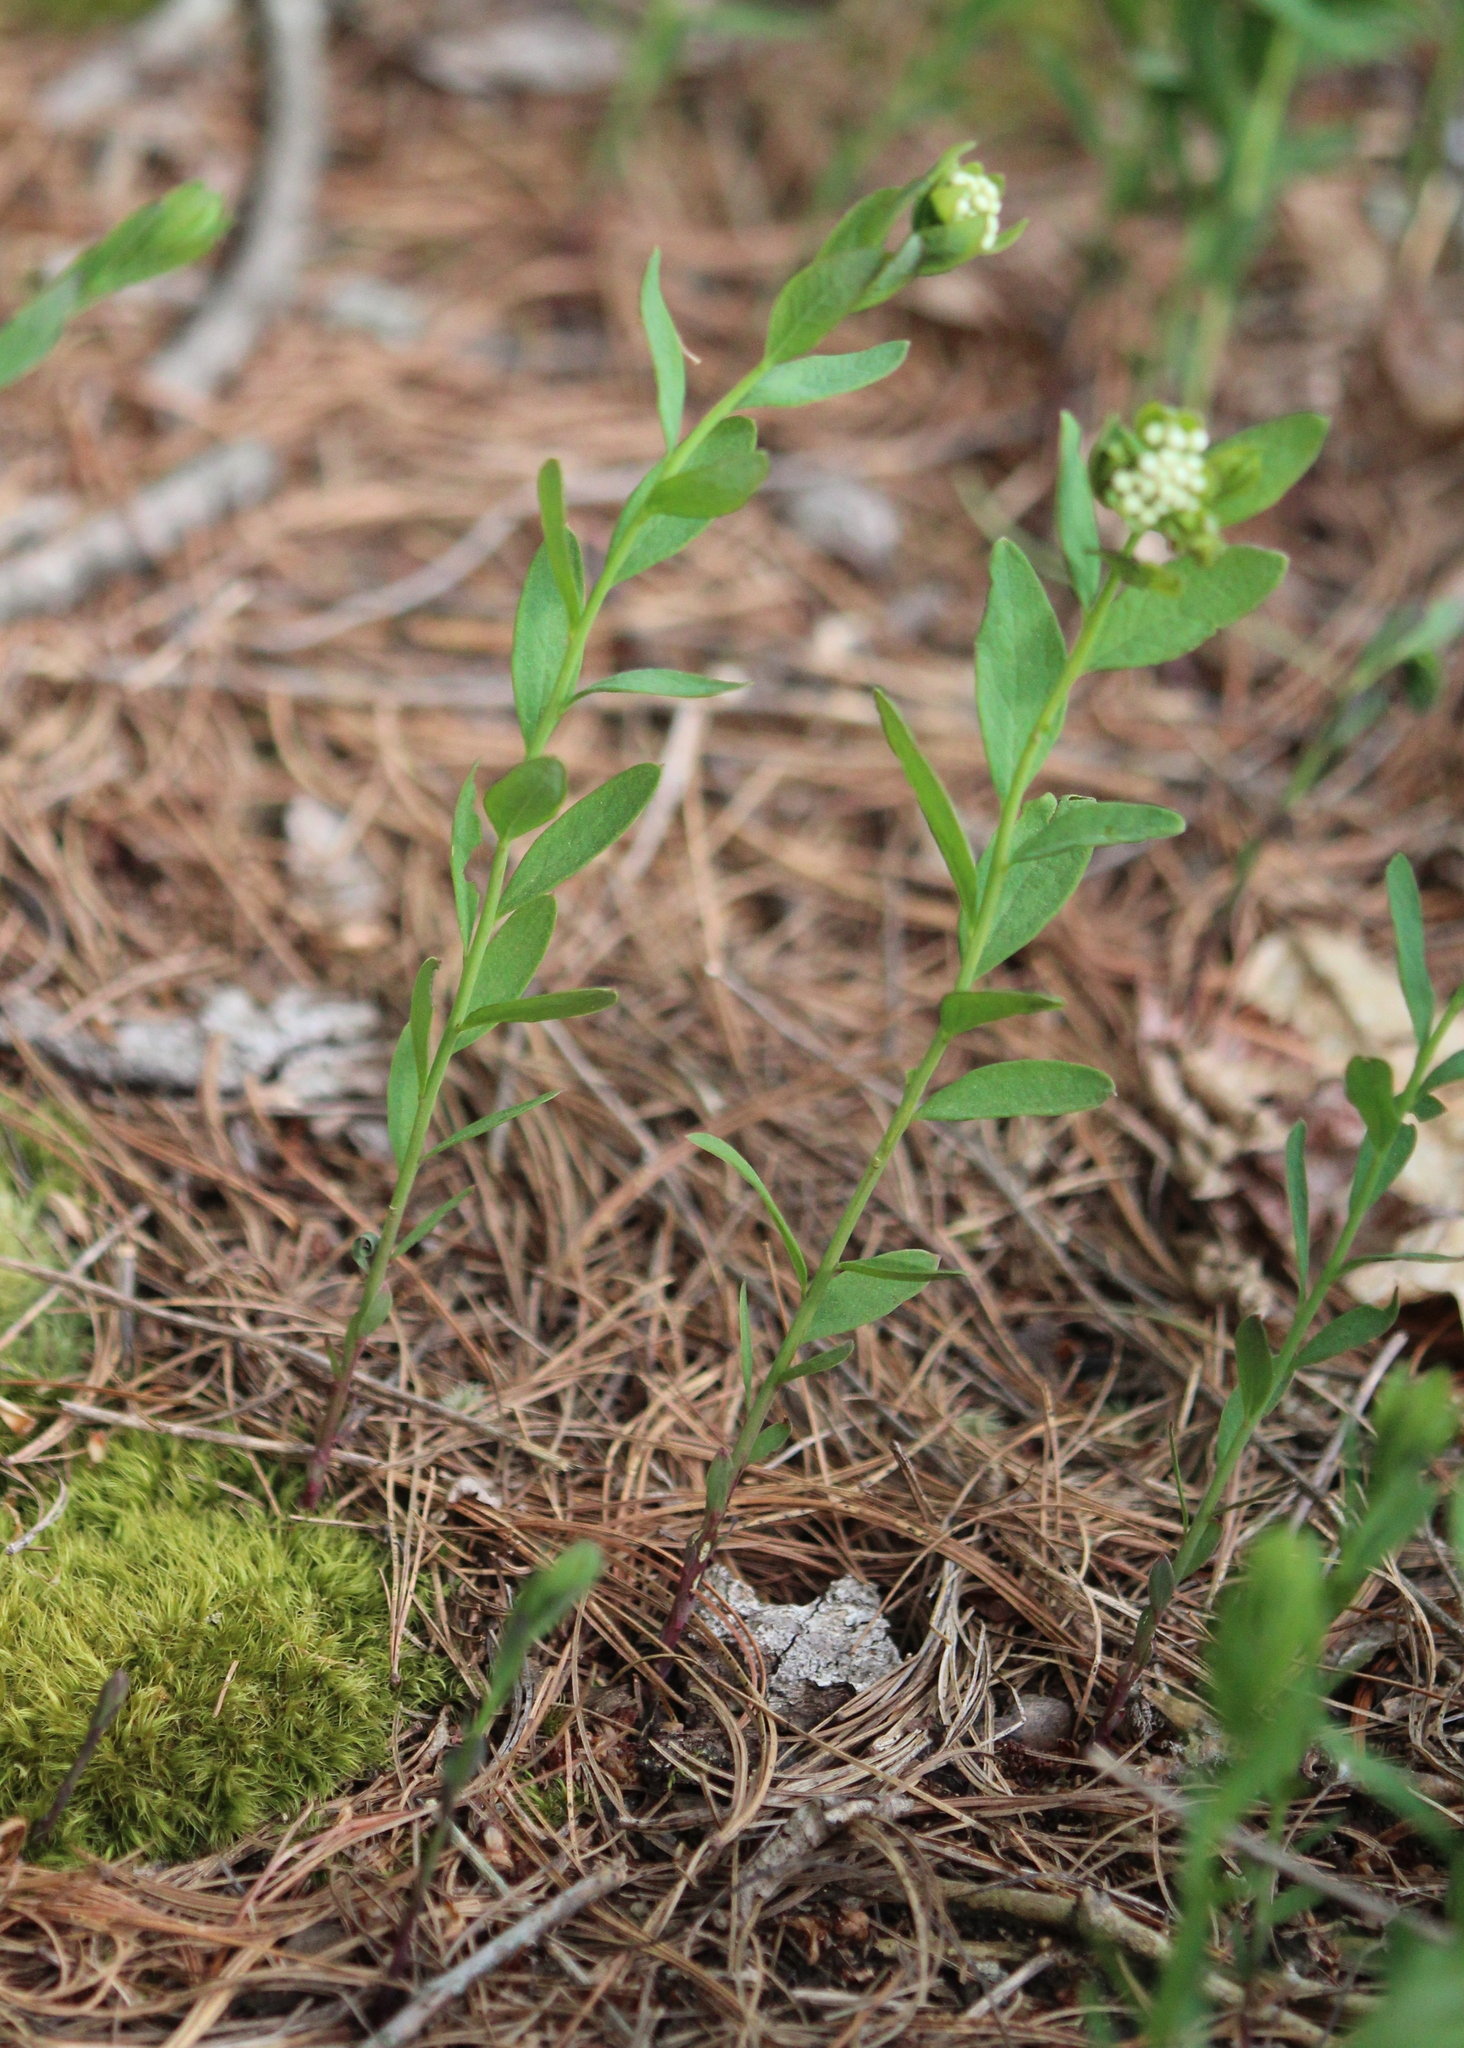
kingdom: Plantae
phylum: Tracheophyta
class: Magnoliopsida
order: Santalales
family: Comandraceae
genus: Comandra
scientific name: Comandra umbellata
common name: Bastard toadflax
